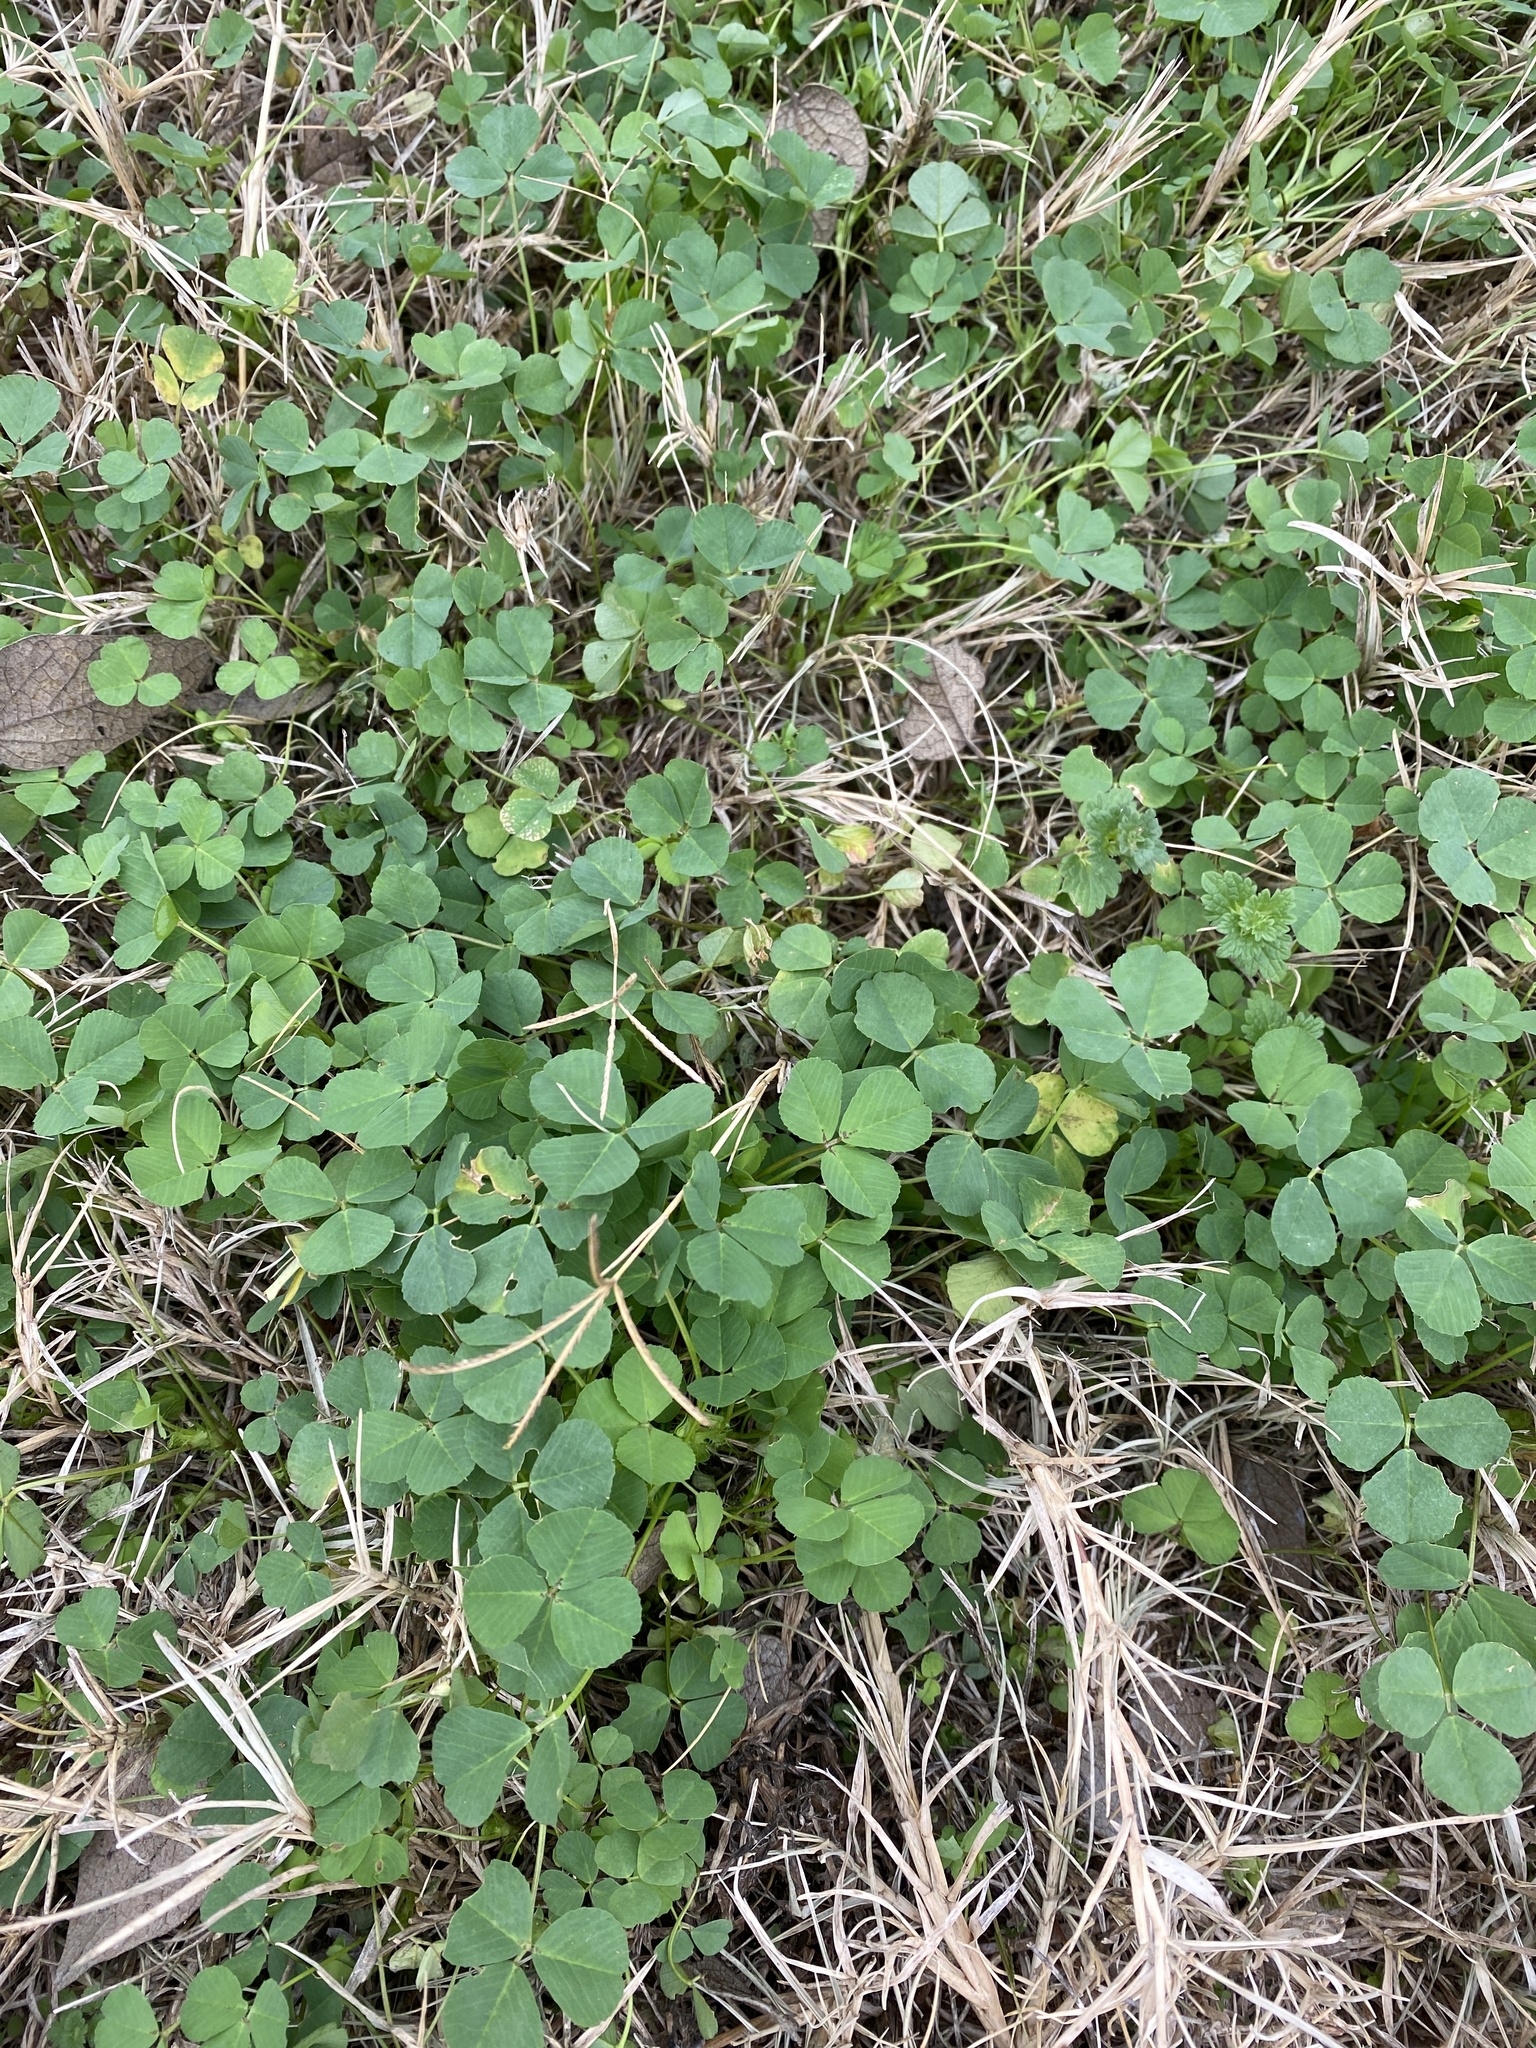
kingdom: Plantae
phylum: Tracheophyta
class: Magnoliopsida
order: Fabales
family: Fabaceae
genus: Trifolium
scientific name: Trifolium repens
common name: White clover
